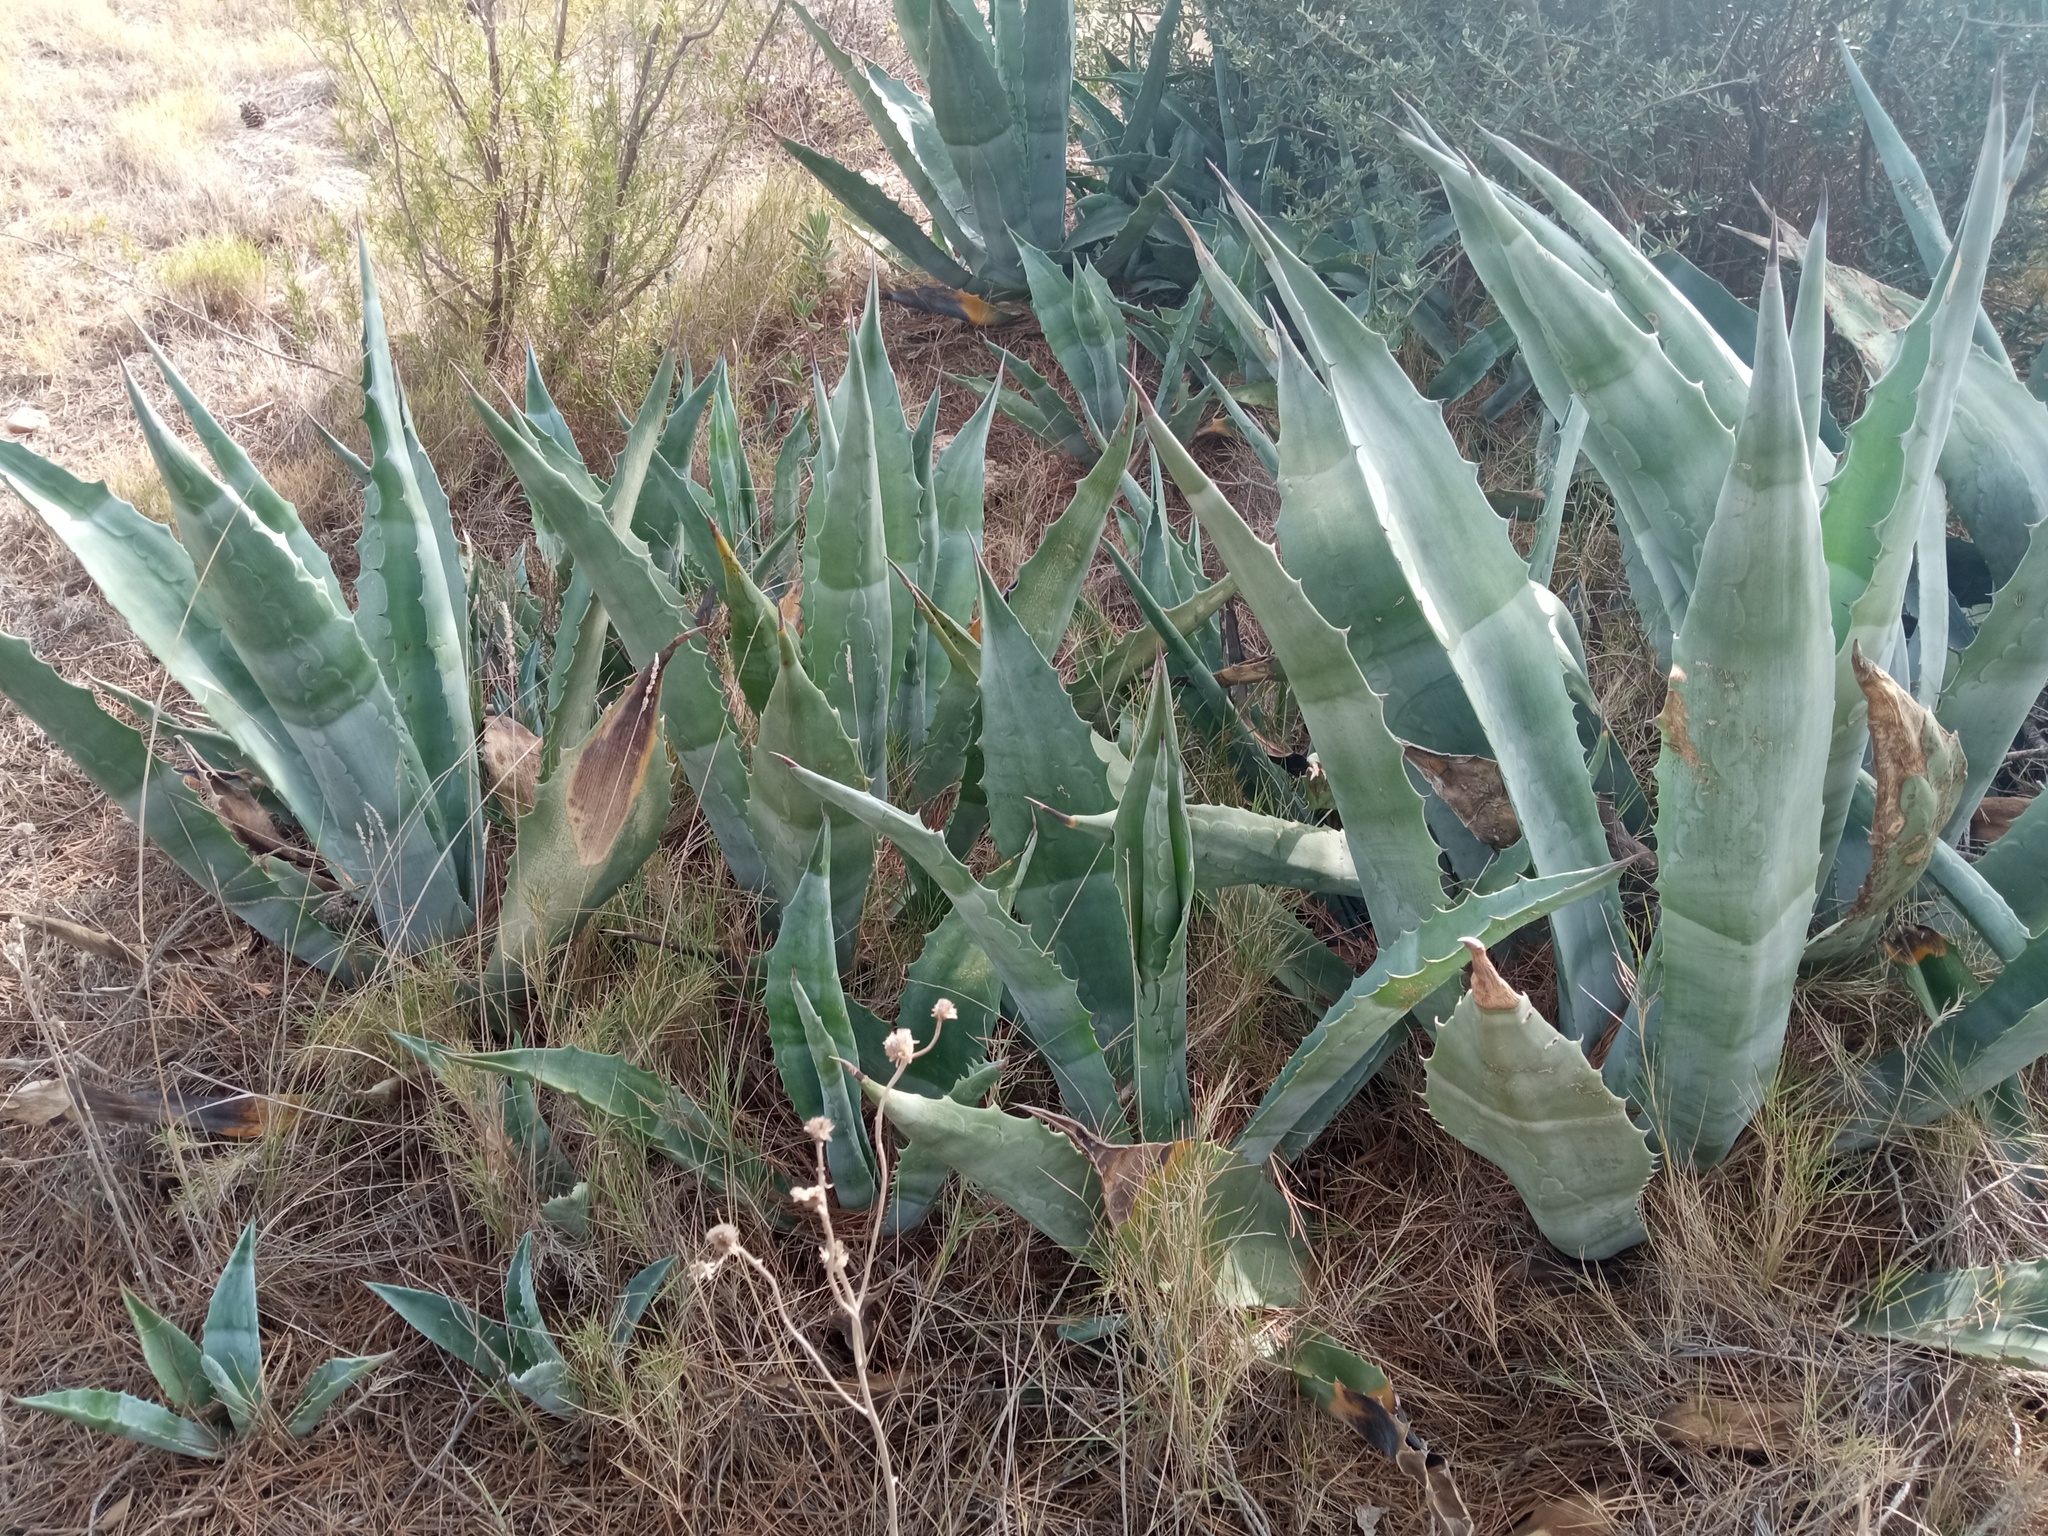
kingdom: Plantae
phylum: Tracheophyta
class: Liliopsida
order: Asparagales
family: Asparagaceae
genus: Agave
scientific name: Agave americana
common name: Centuryplant
